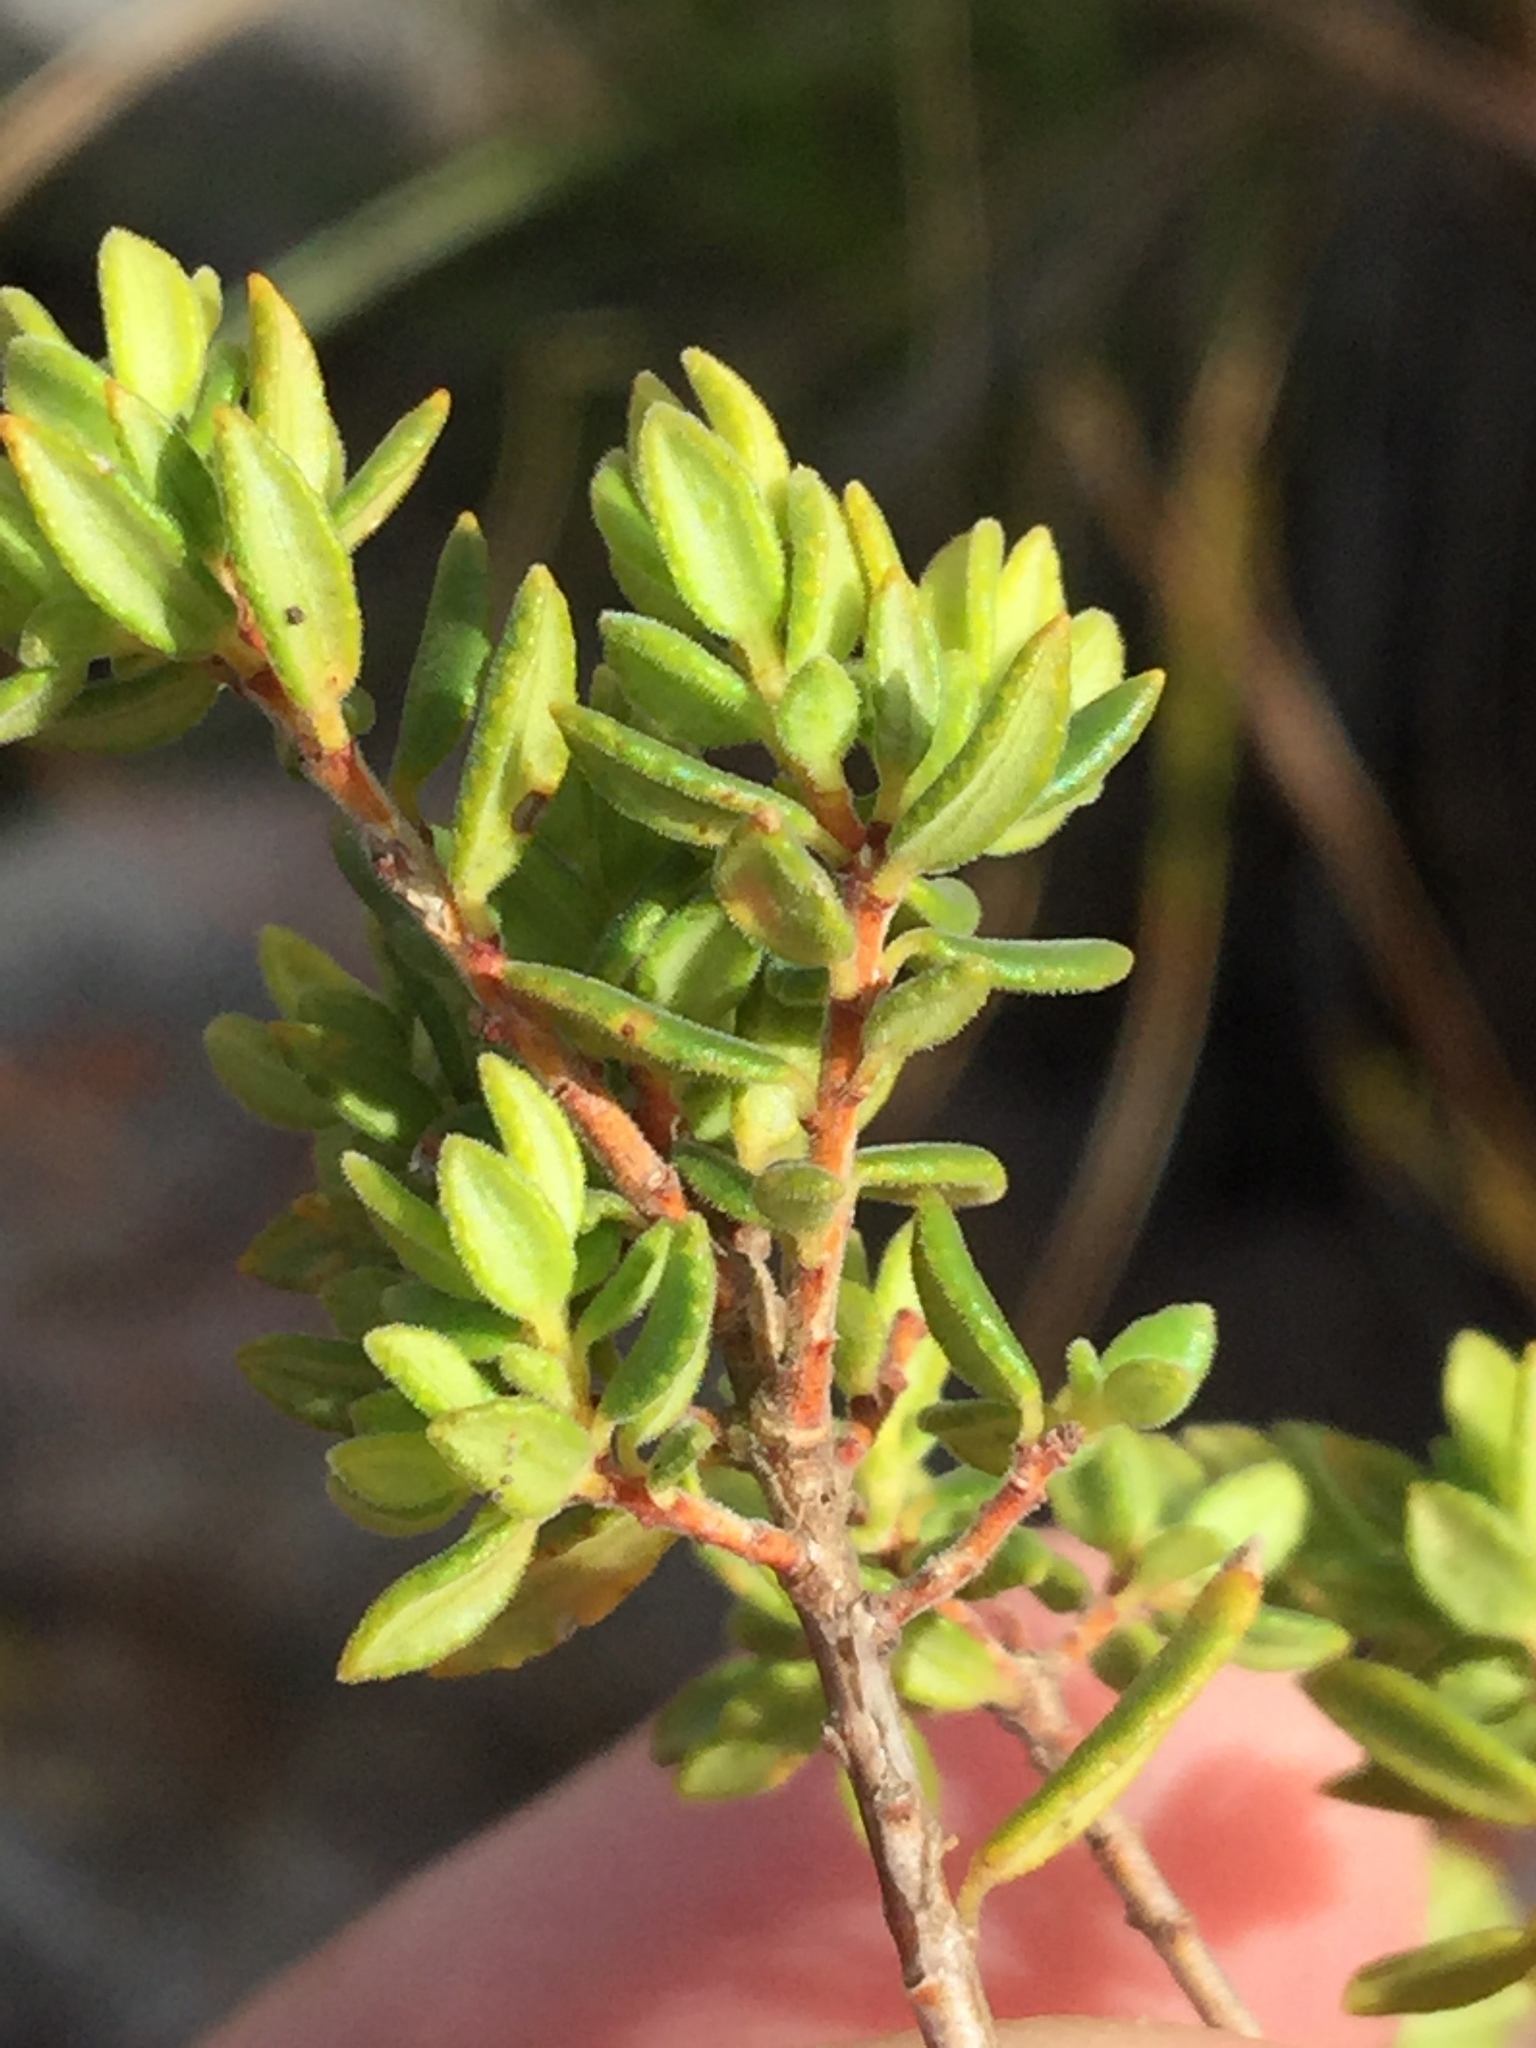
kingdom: Plantae
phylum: Tracheophyta
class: Magnoliopsida
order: Sapindales
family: Rutaceae
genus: Agathosma
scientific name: Agathosma mundtii
